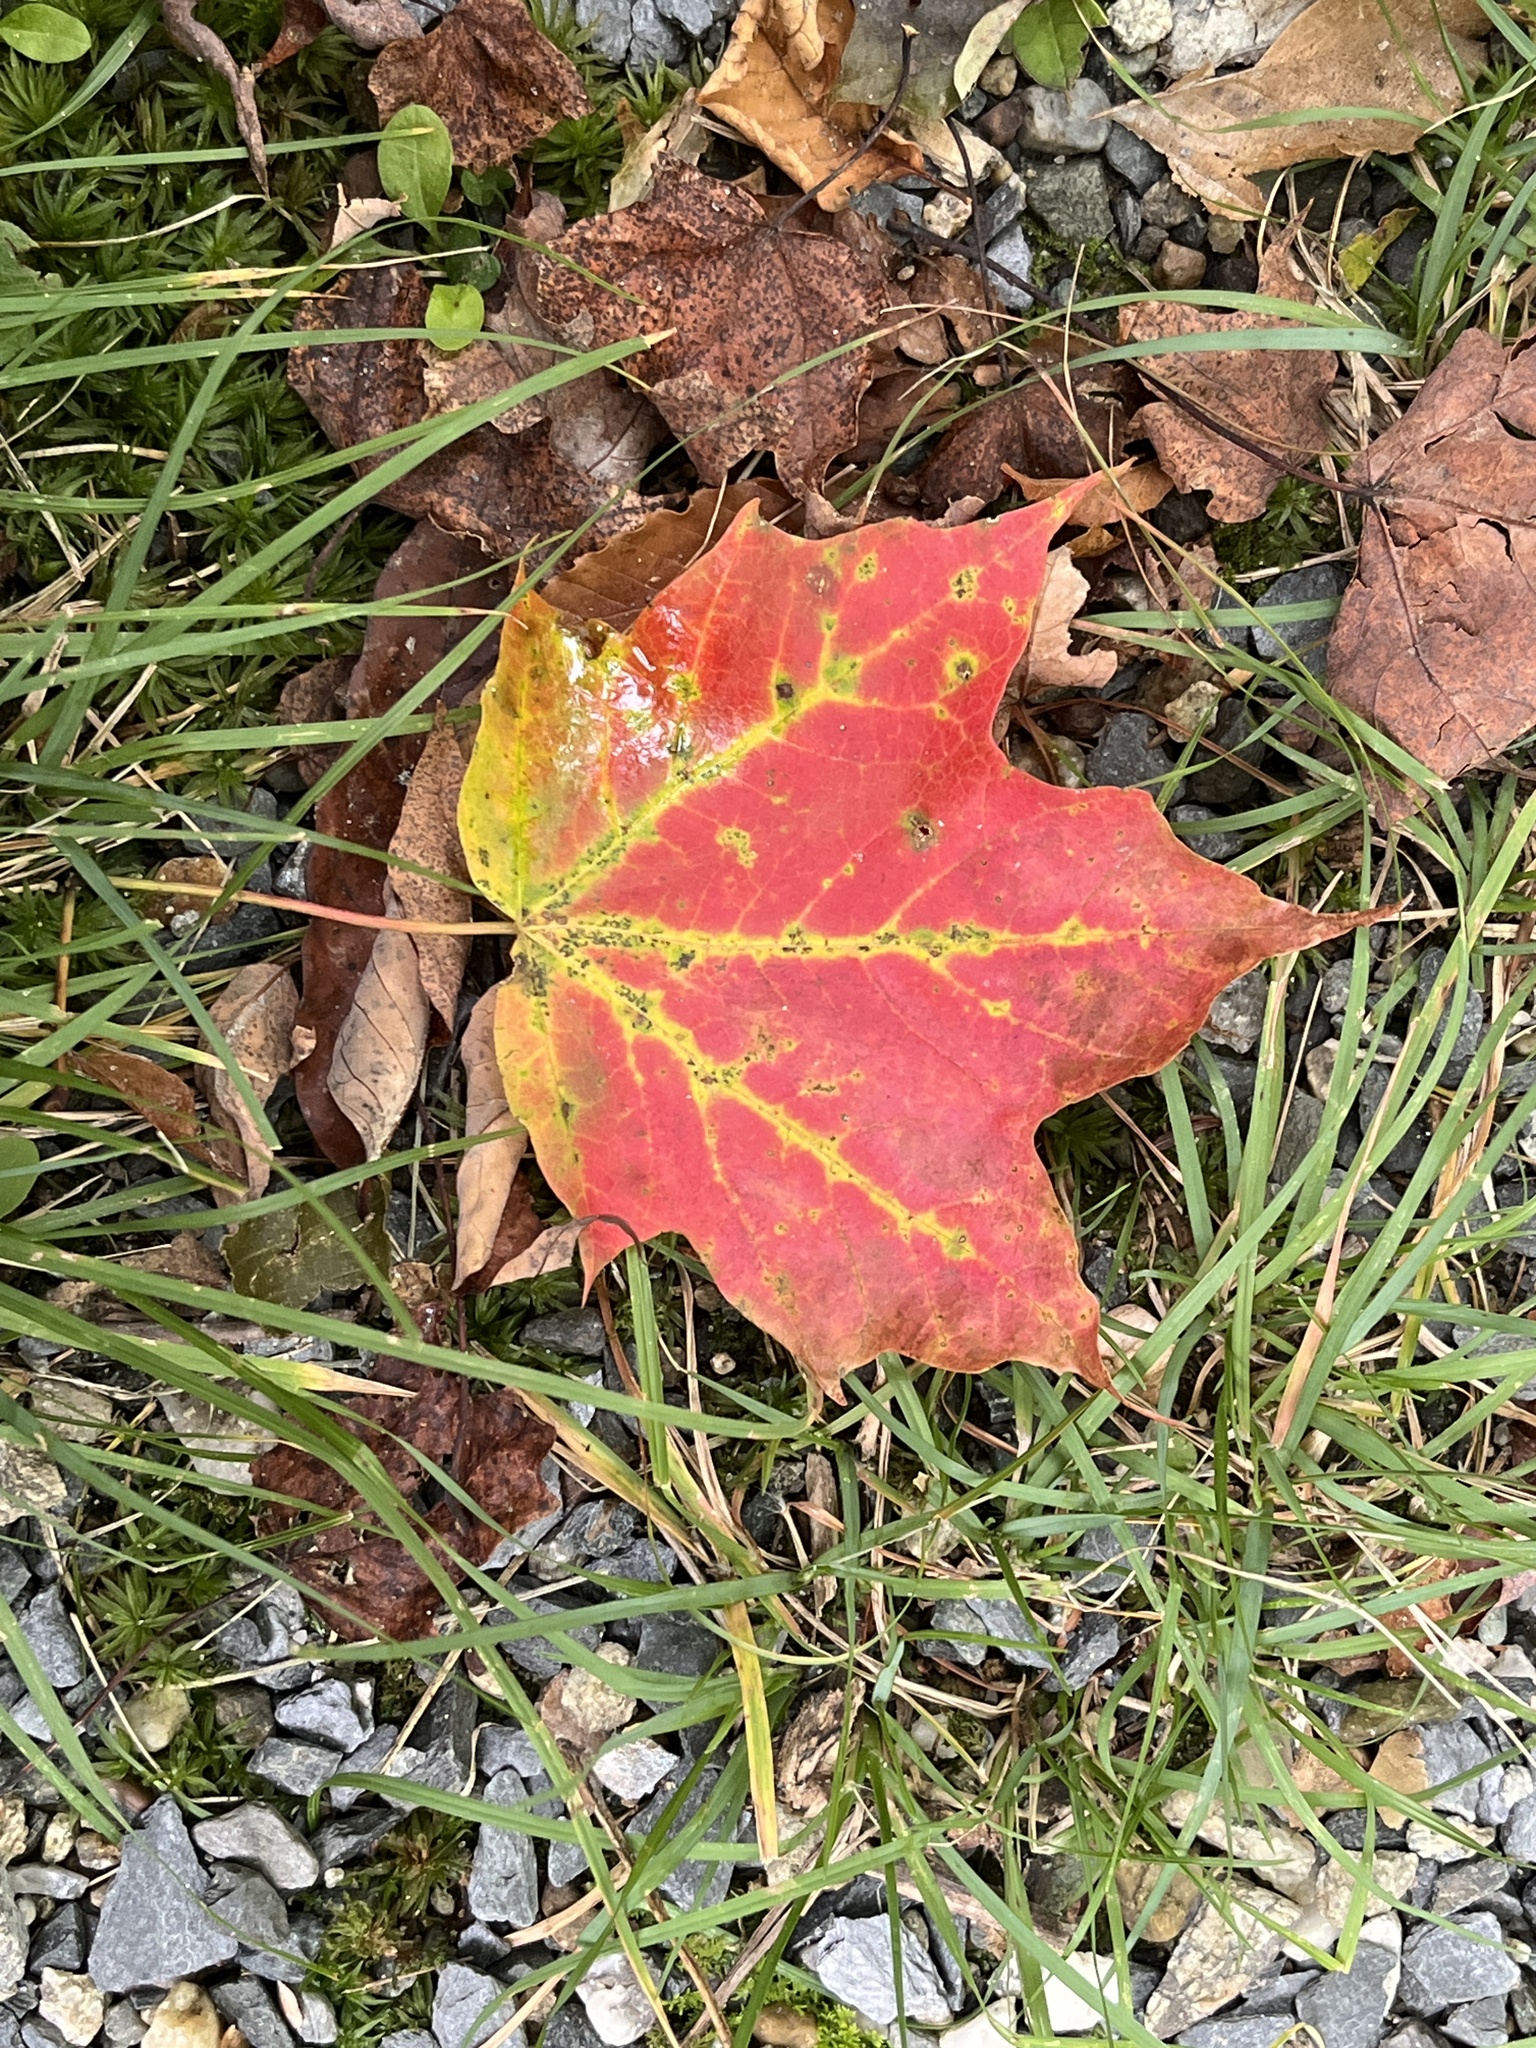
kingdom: Plantae
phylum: Tracheophyta
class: Magnoliopsida
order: Sapindales
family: Sapindaceae
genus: Acer
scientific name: Acer saccharum
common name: Sugar maple
